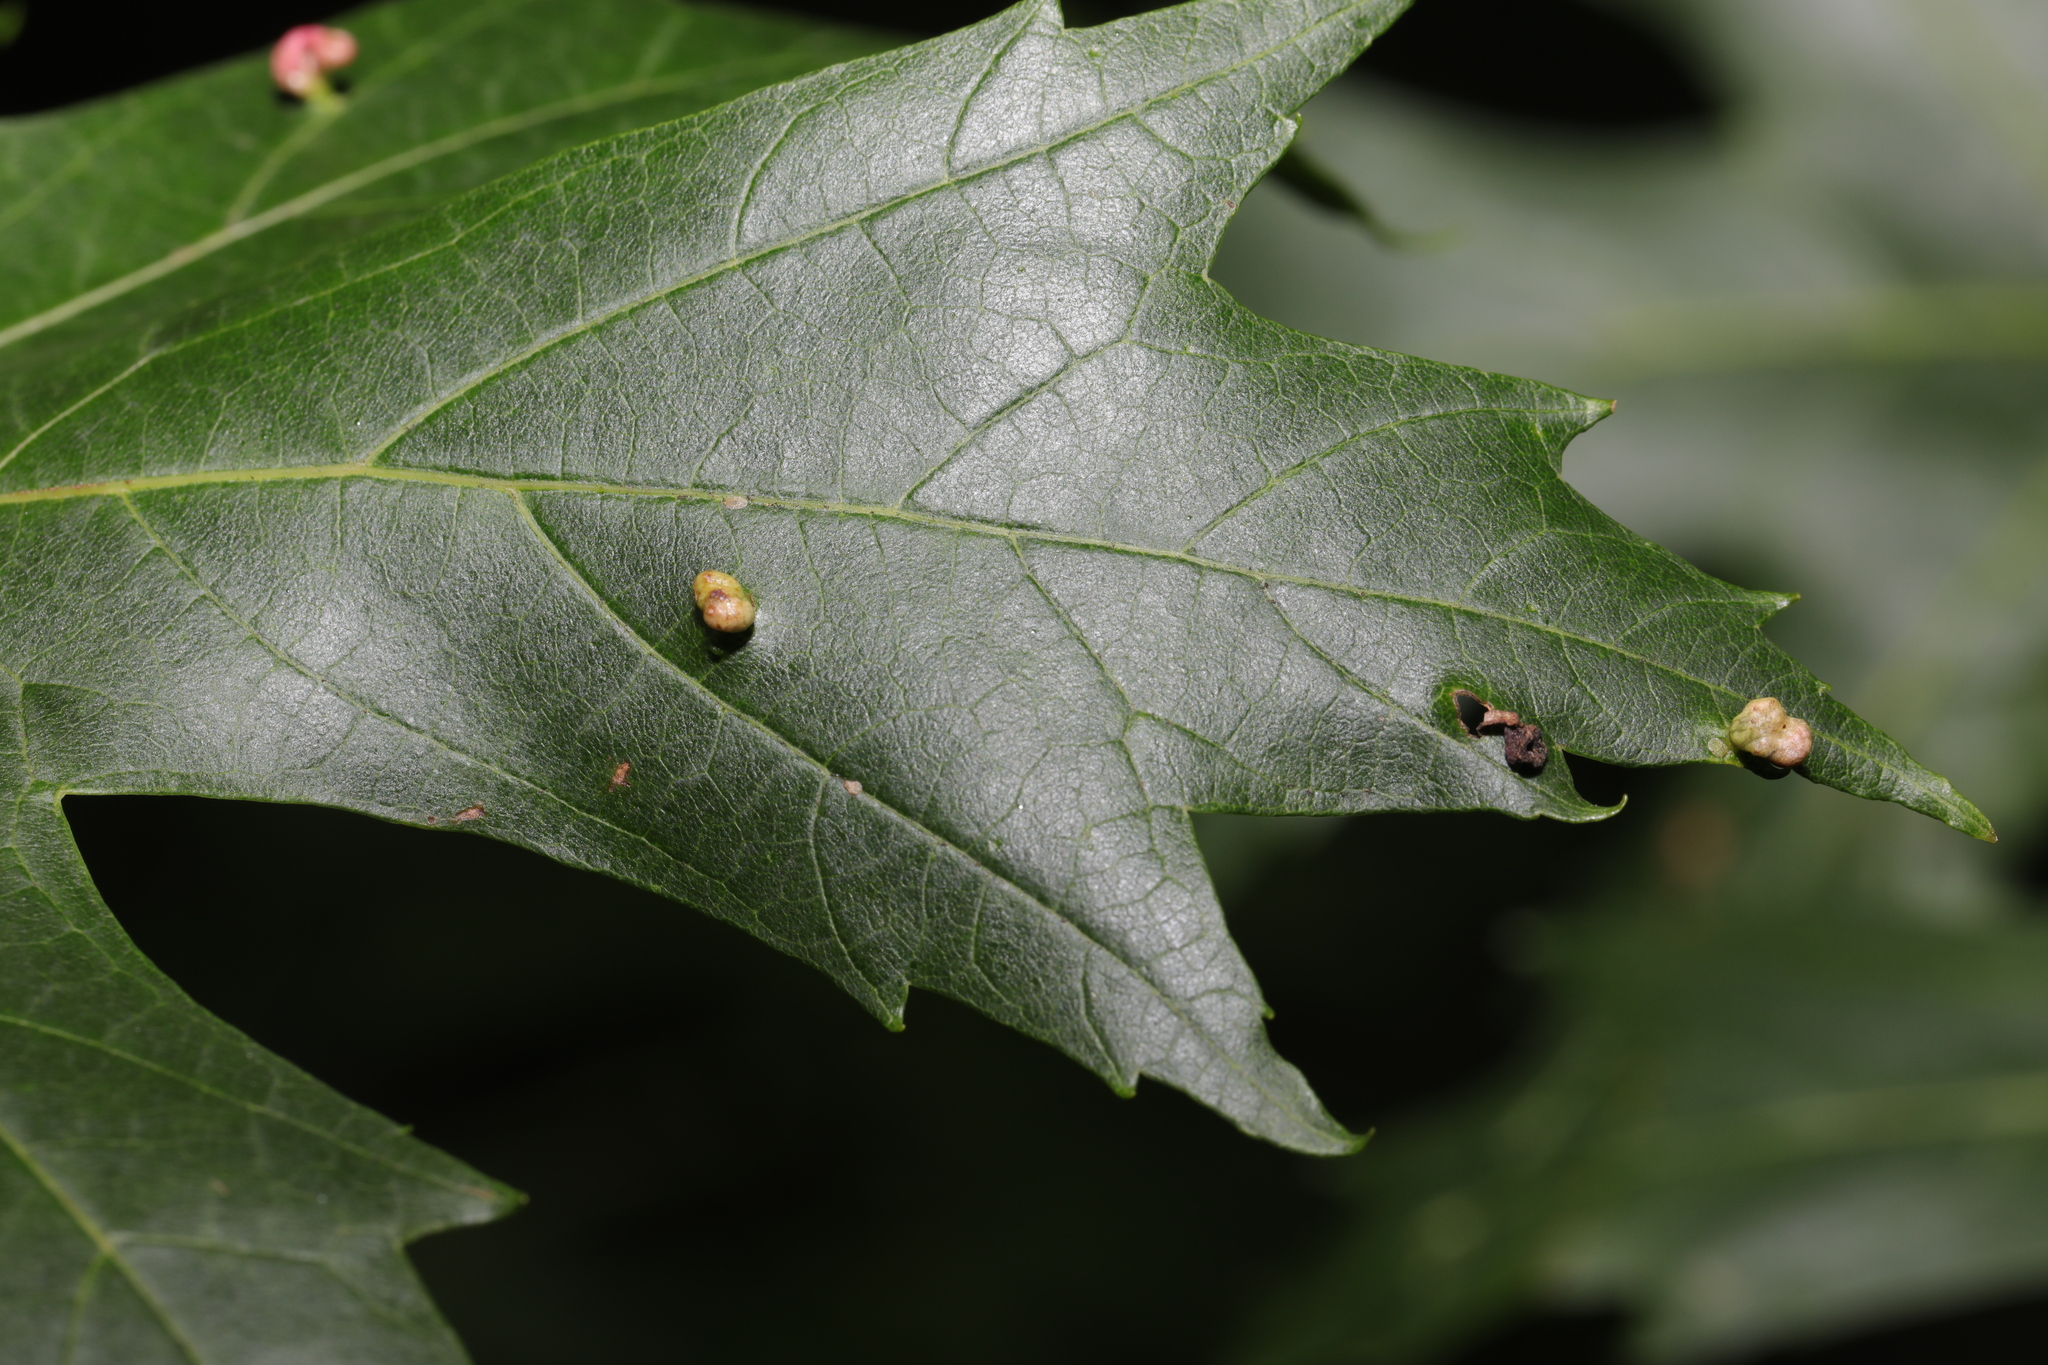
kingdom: Animalia
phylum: Arthropoda
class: Arachnida
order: Trombidiformes
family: Eriophyidae
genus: Vasates
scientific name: Vasates quadripedes
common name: Maple bladder gall mite
